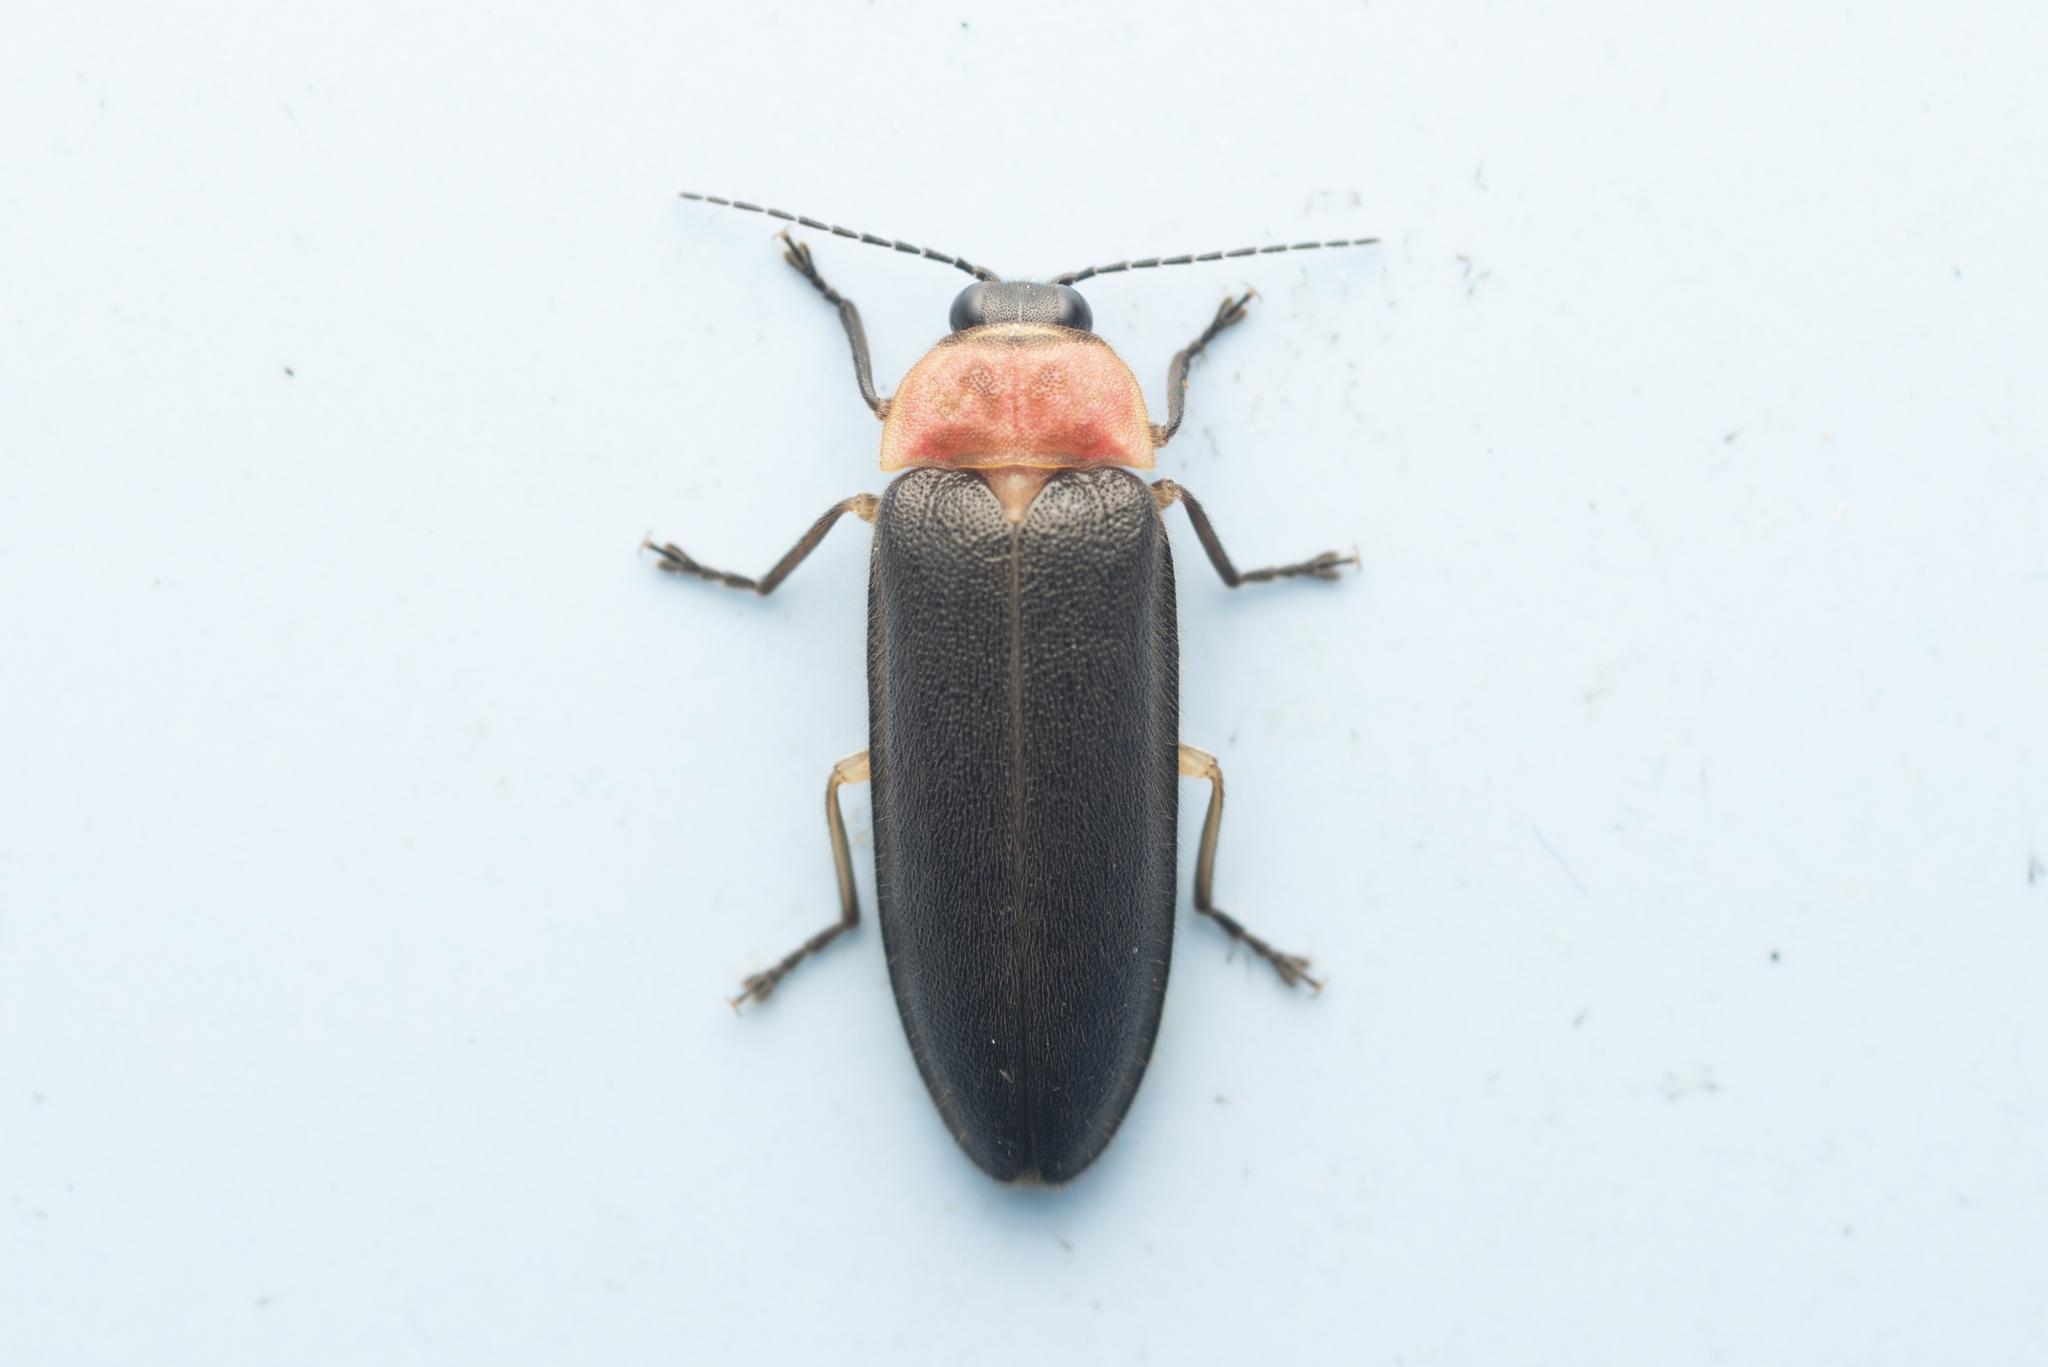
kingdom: Animalia
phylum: Arthropoda
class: Insecta
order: Coleoptera
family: Lampyridae
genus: Pygoluciola
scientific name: Pygoluciola qingyu
